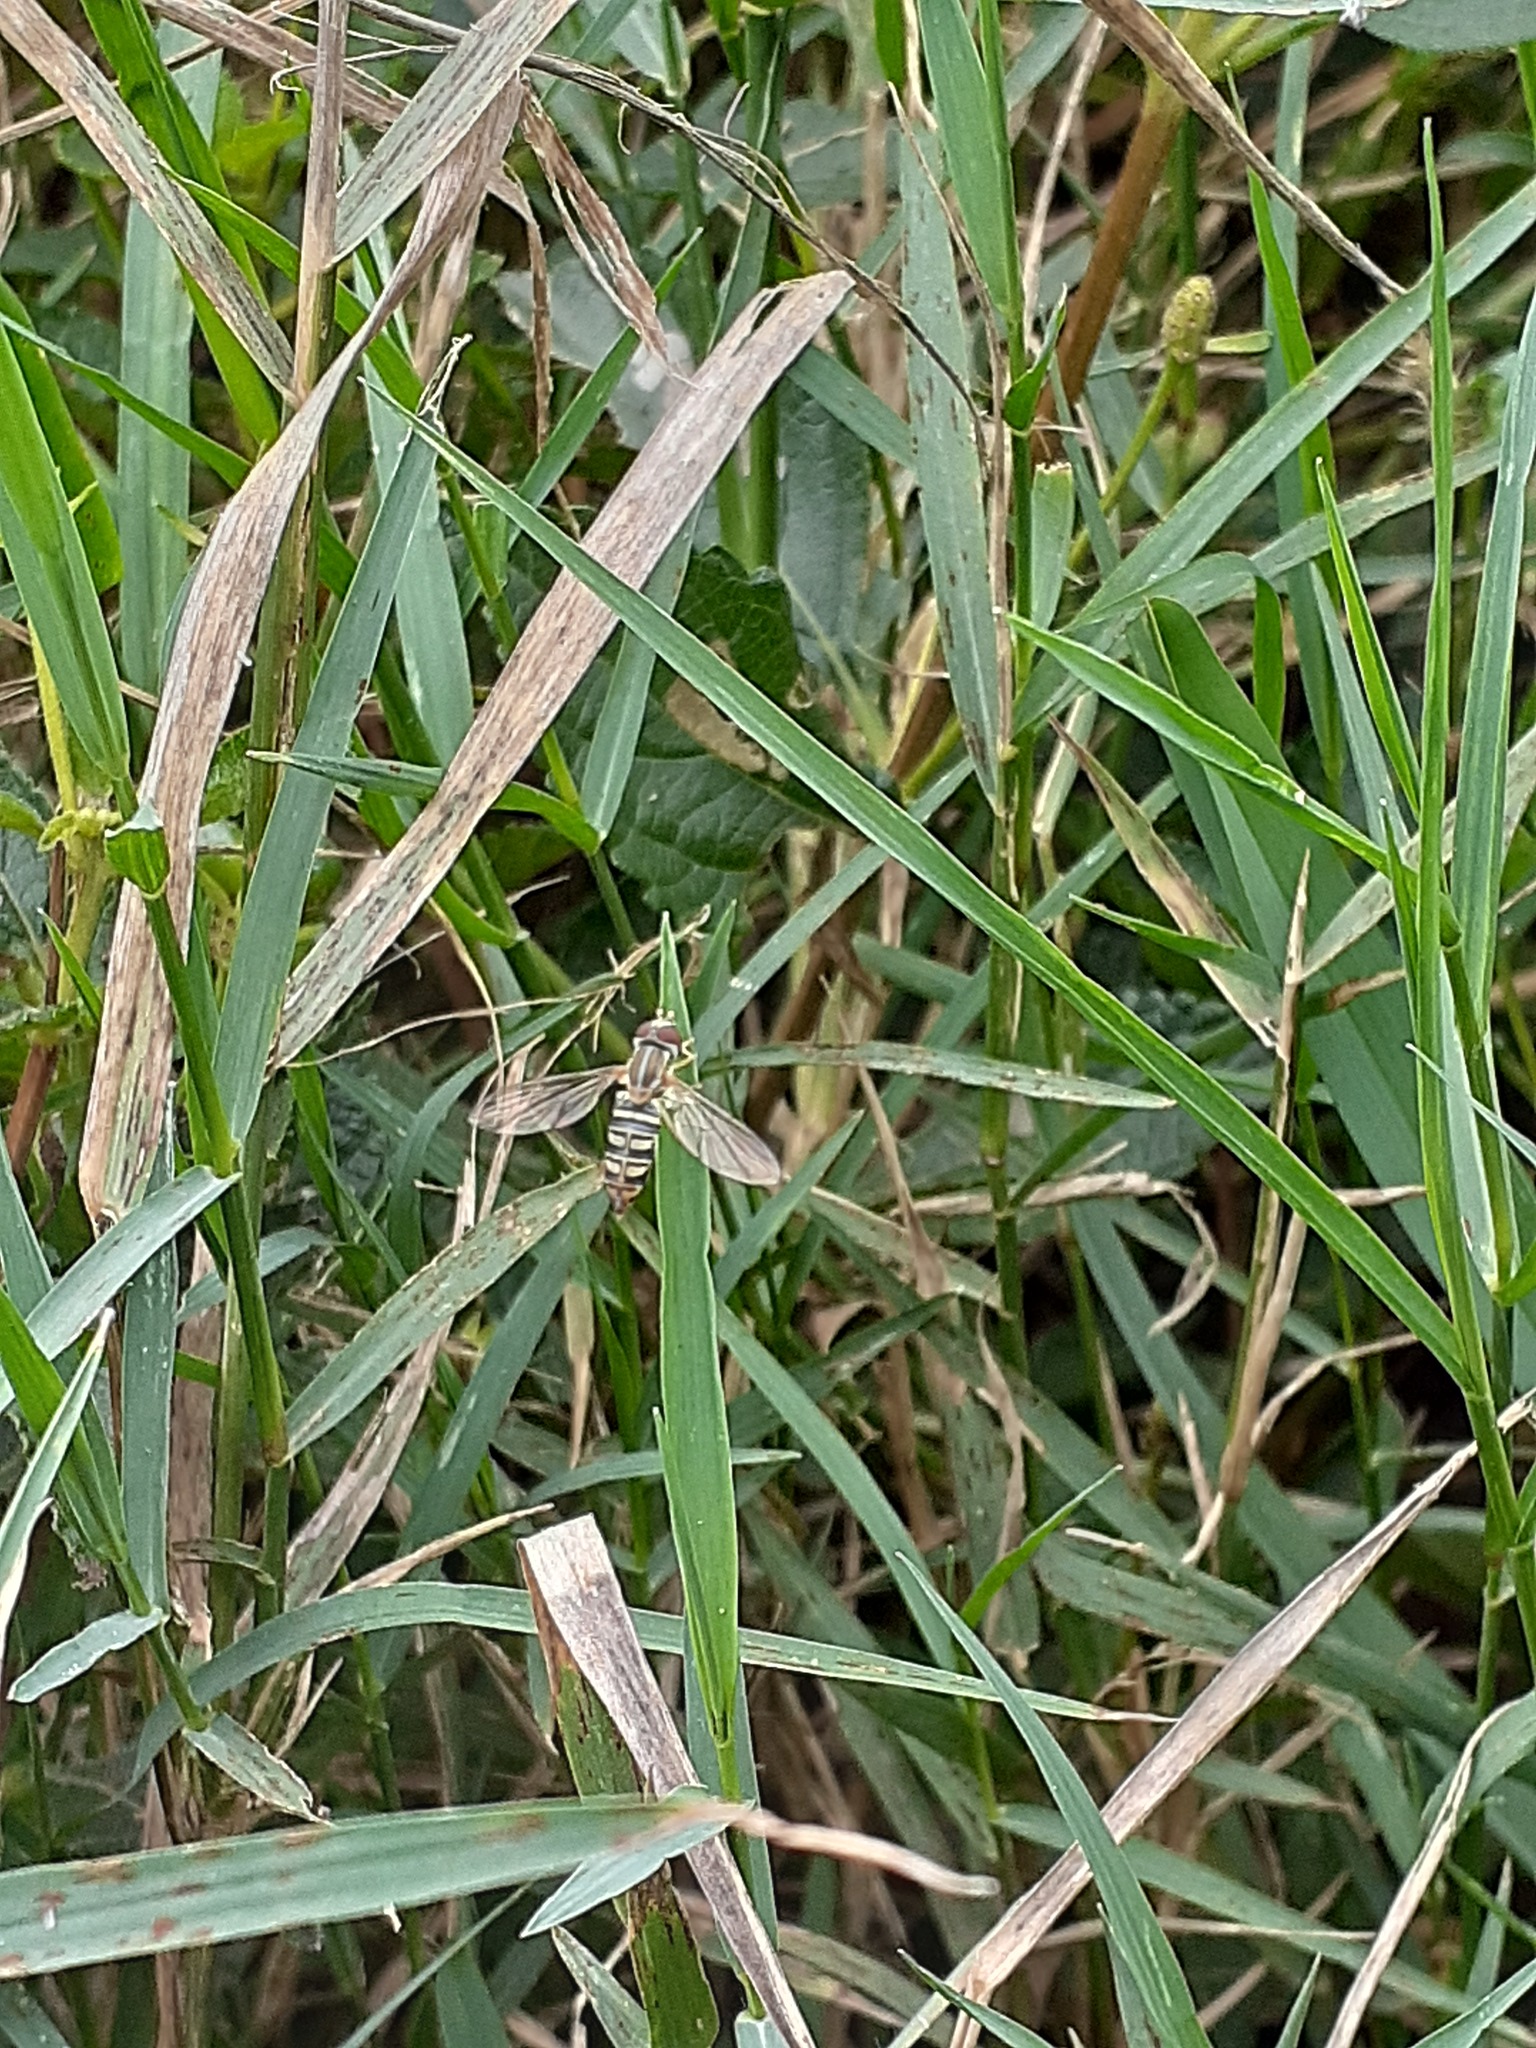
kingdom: Animalia
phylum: Arthropoda
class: Insecta
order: Diptera
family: Syrphidae
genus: Toxomerus
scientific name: Toxomerus politus
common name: Maize calligrapher
